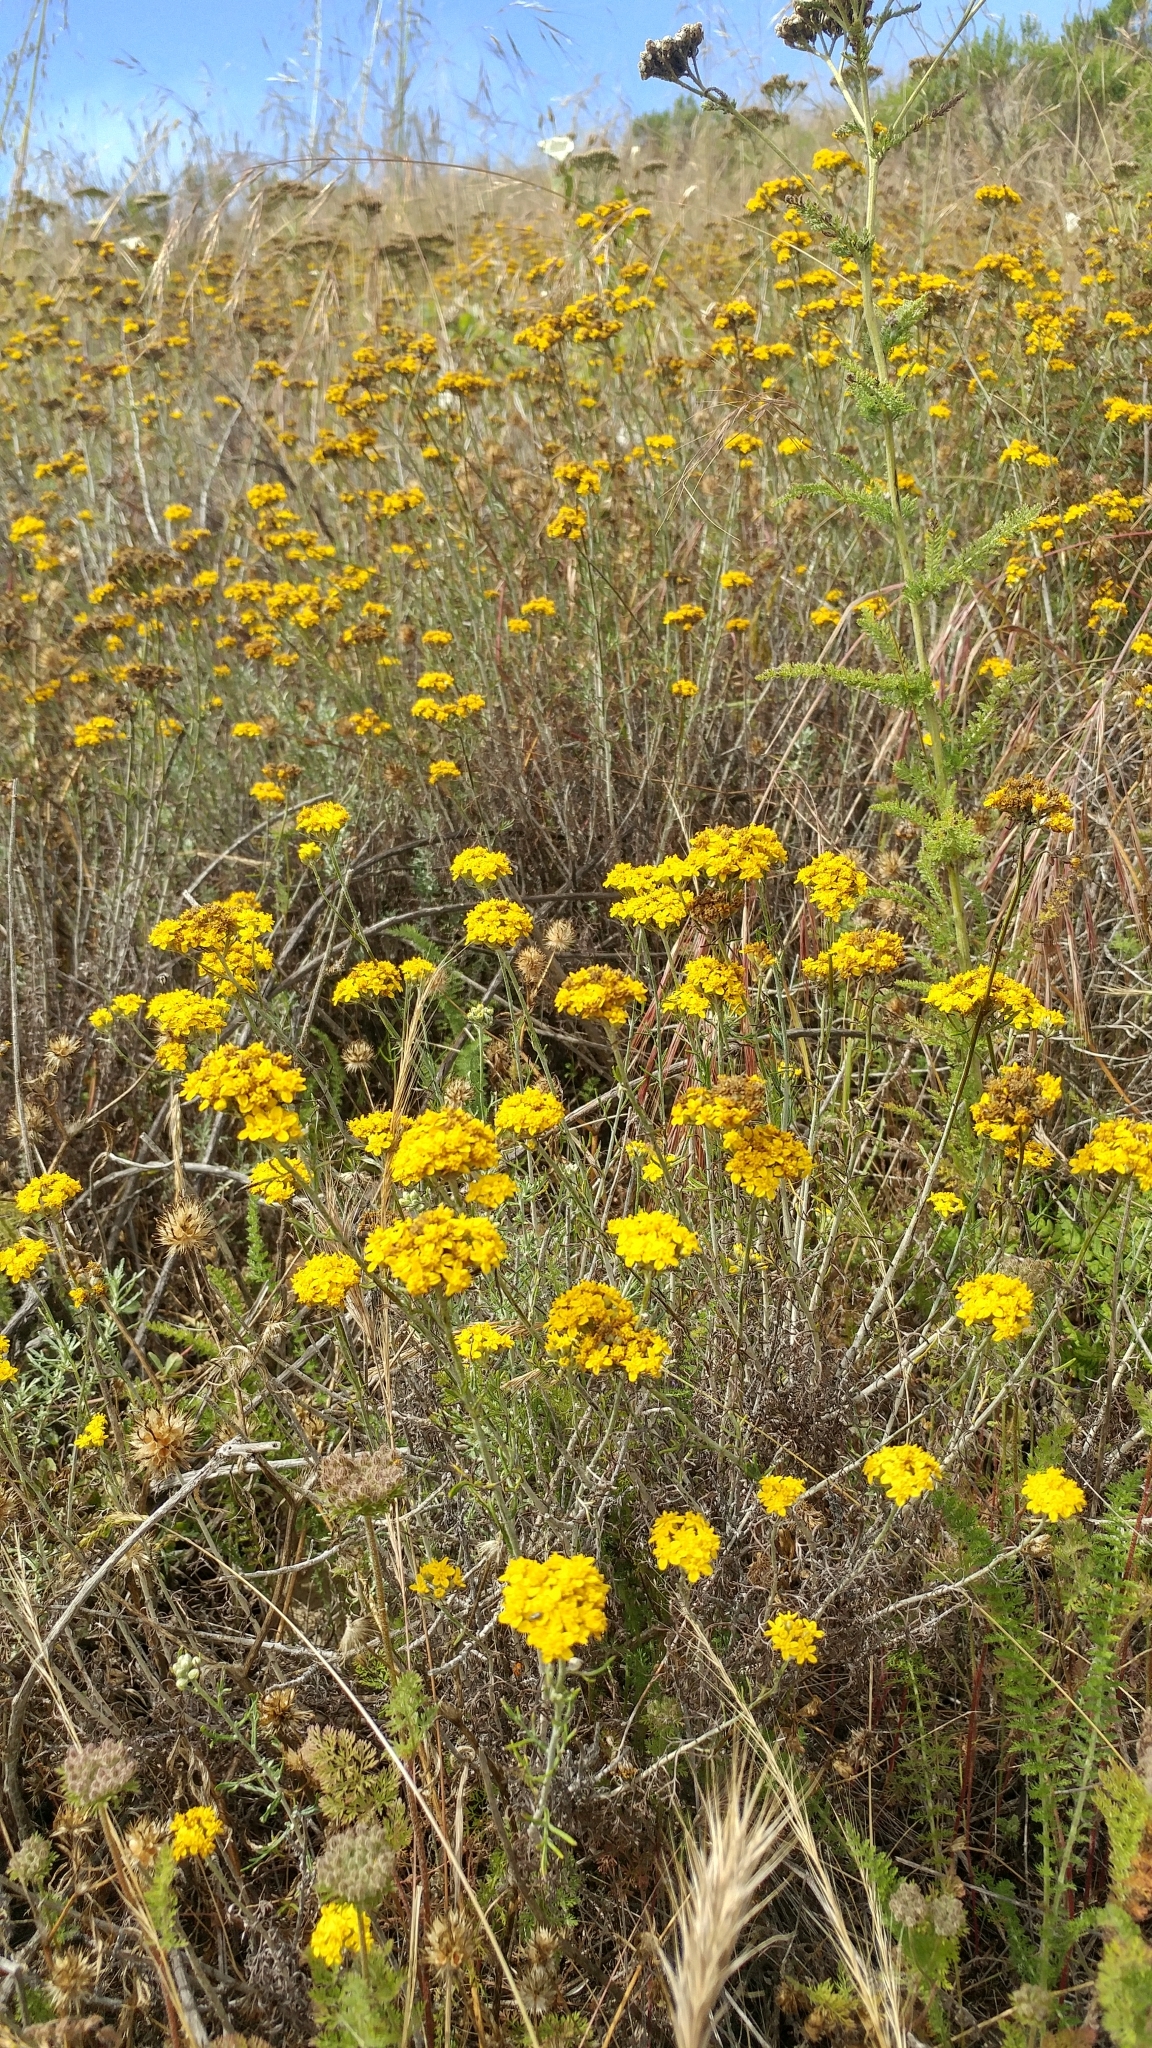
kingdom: Plantae
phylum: Tracheophyta
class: Magnoliopsida
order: Asterales
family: Asteraceae
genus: Eriophyllum
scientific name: Eriophyllum confertiflorum
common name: Golden-yarrow
